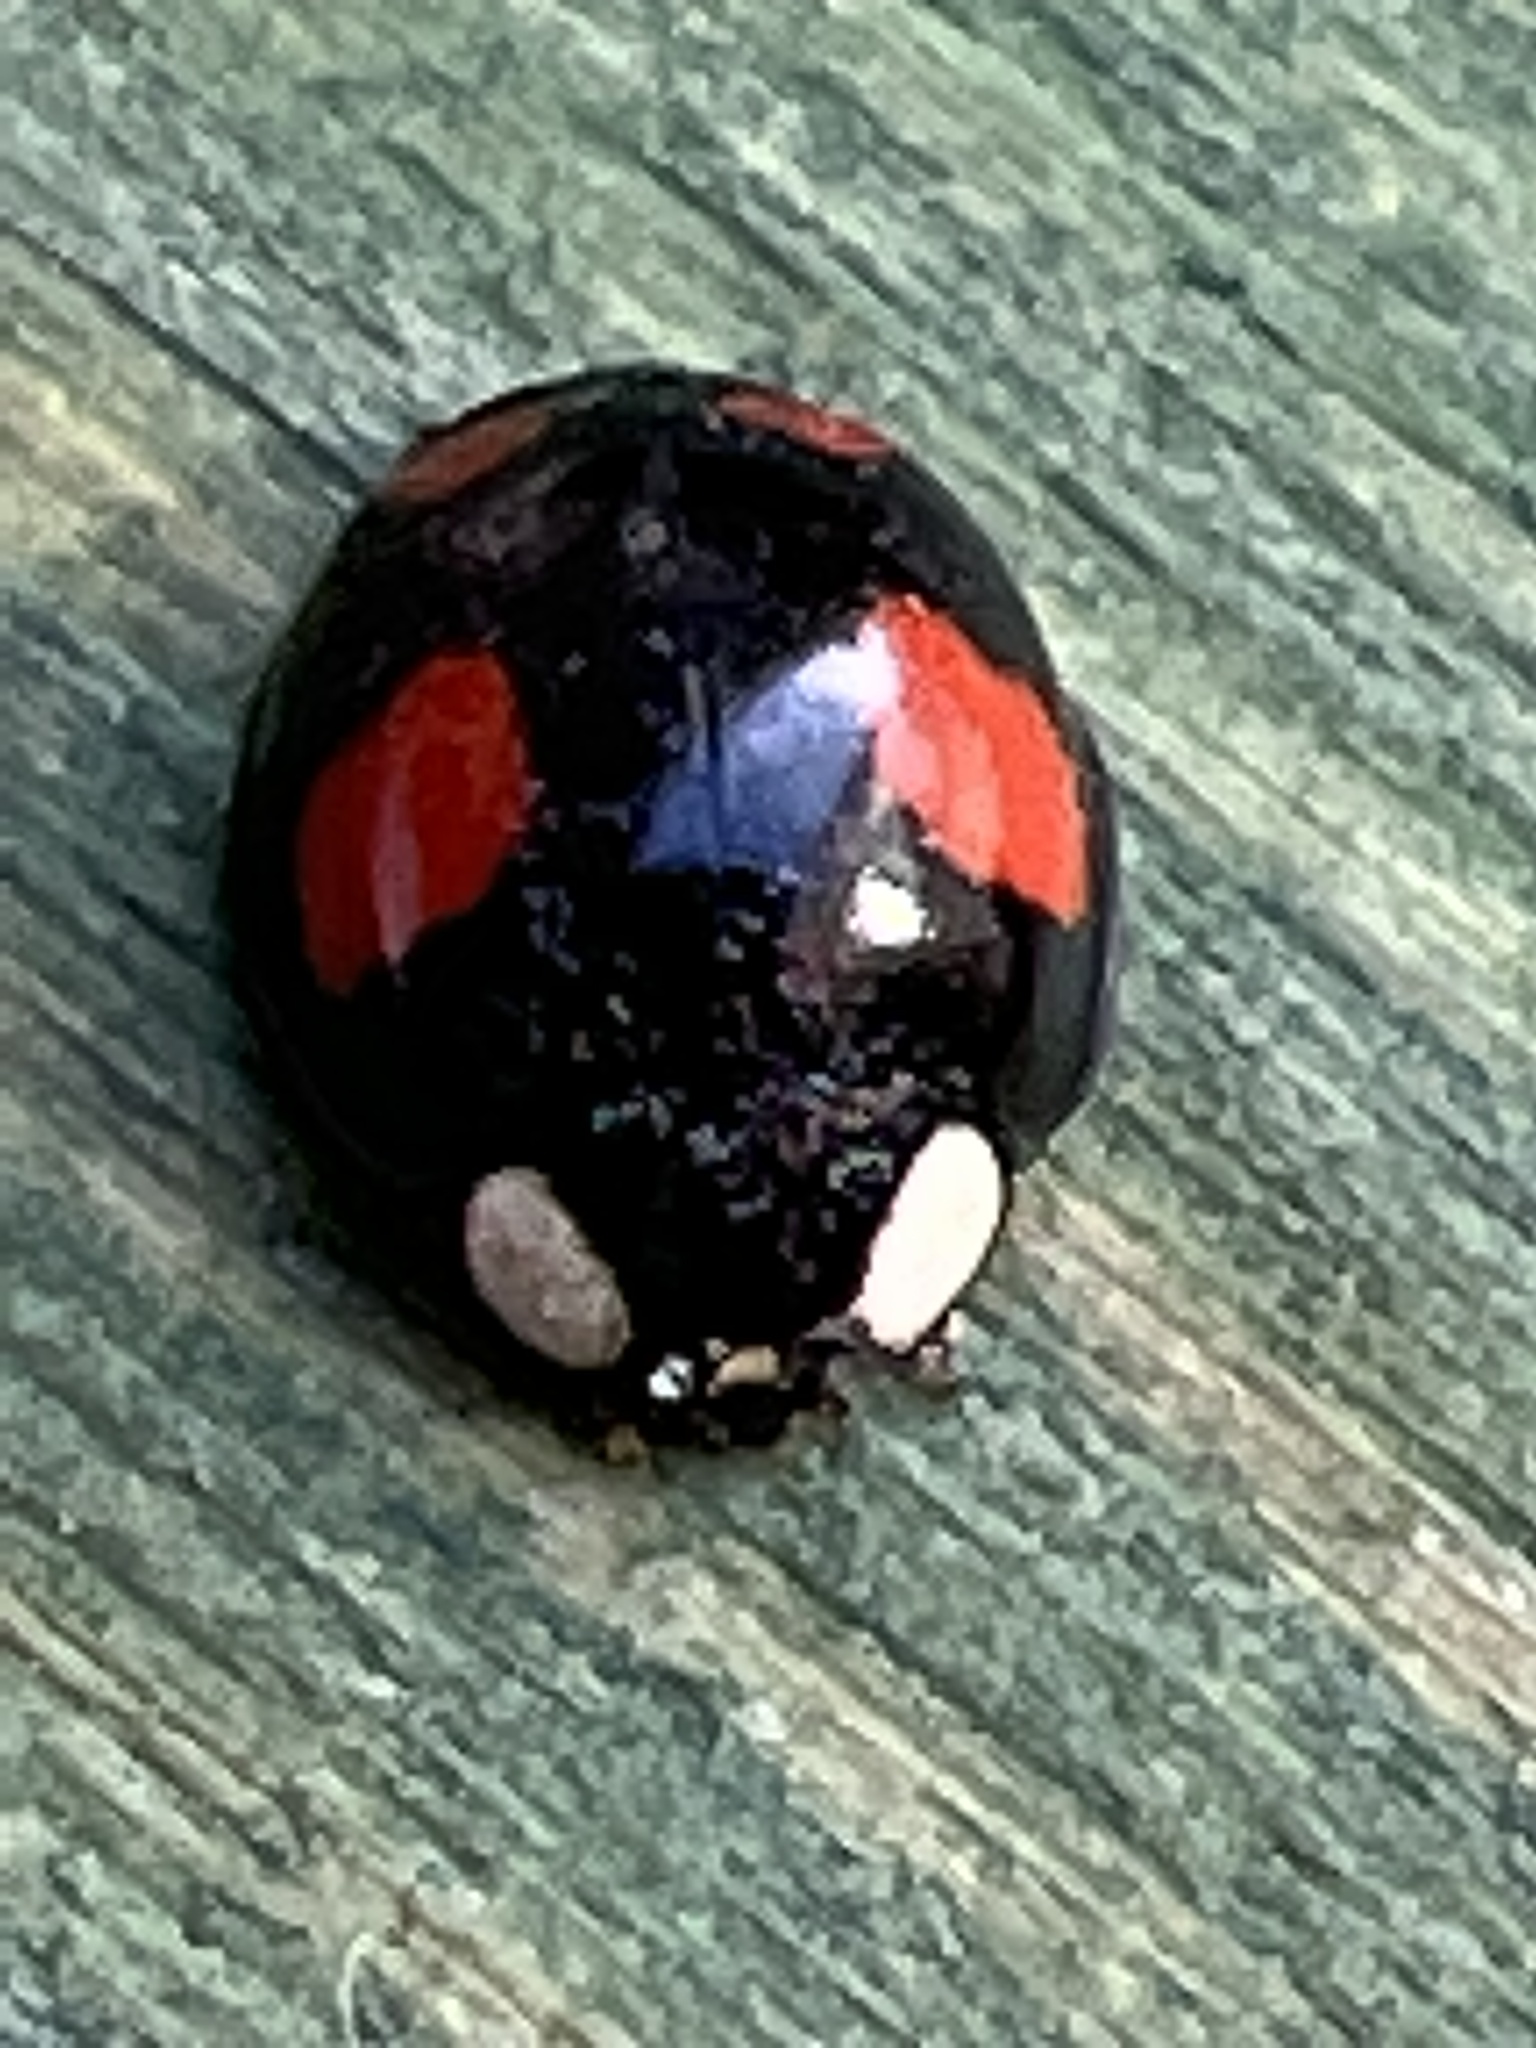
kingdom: Animalia
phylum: Arthropoda
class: Insecta
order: Coleoptera
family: Coccinellidae
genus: Harmonia
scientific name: Harmonia axyridis
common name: Harlequin ladybird
